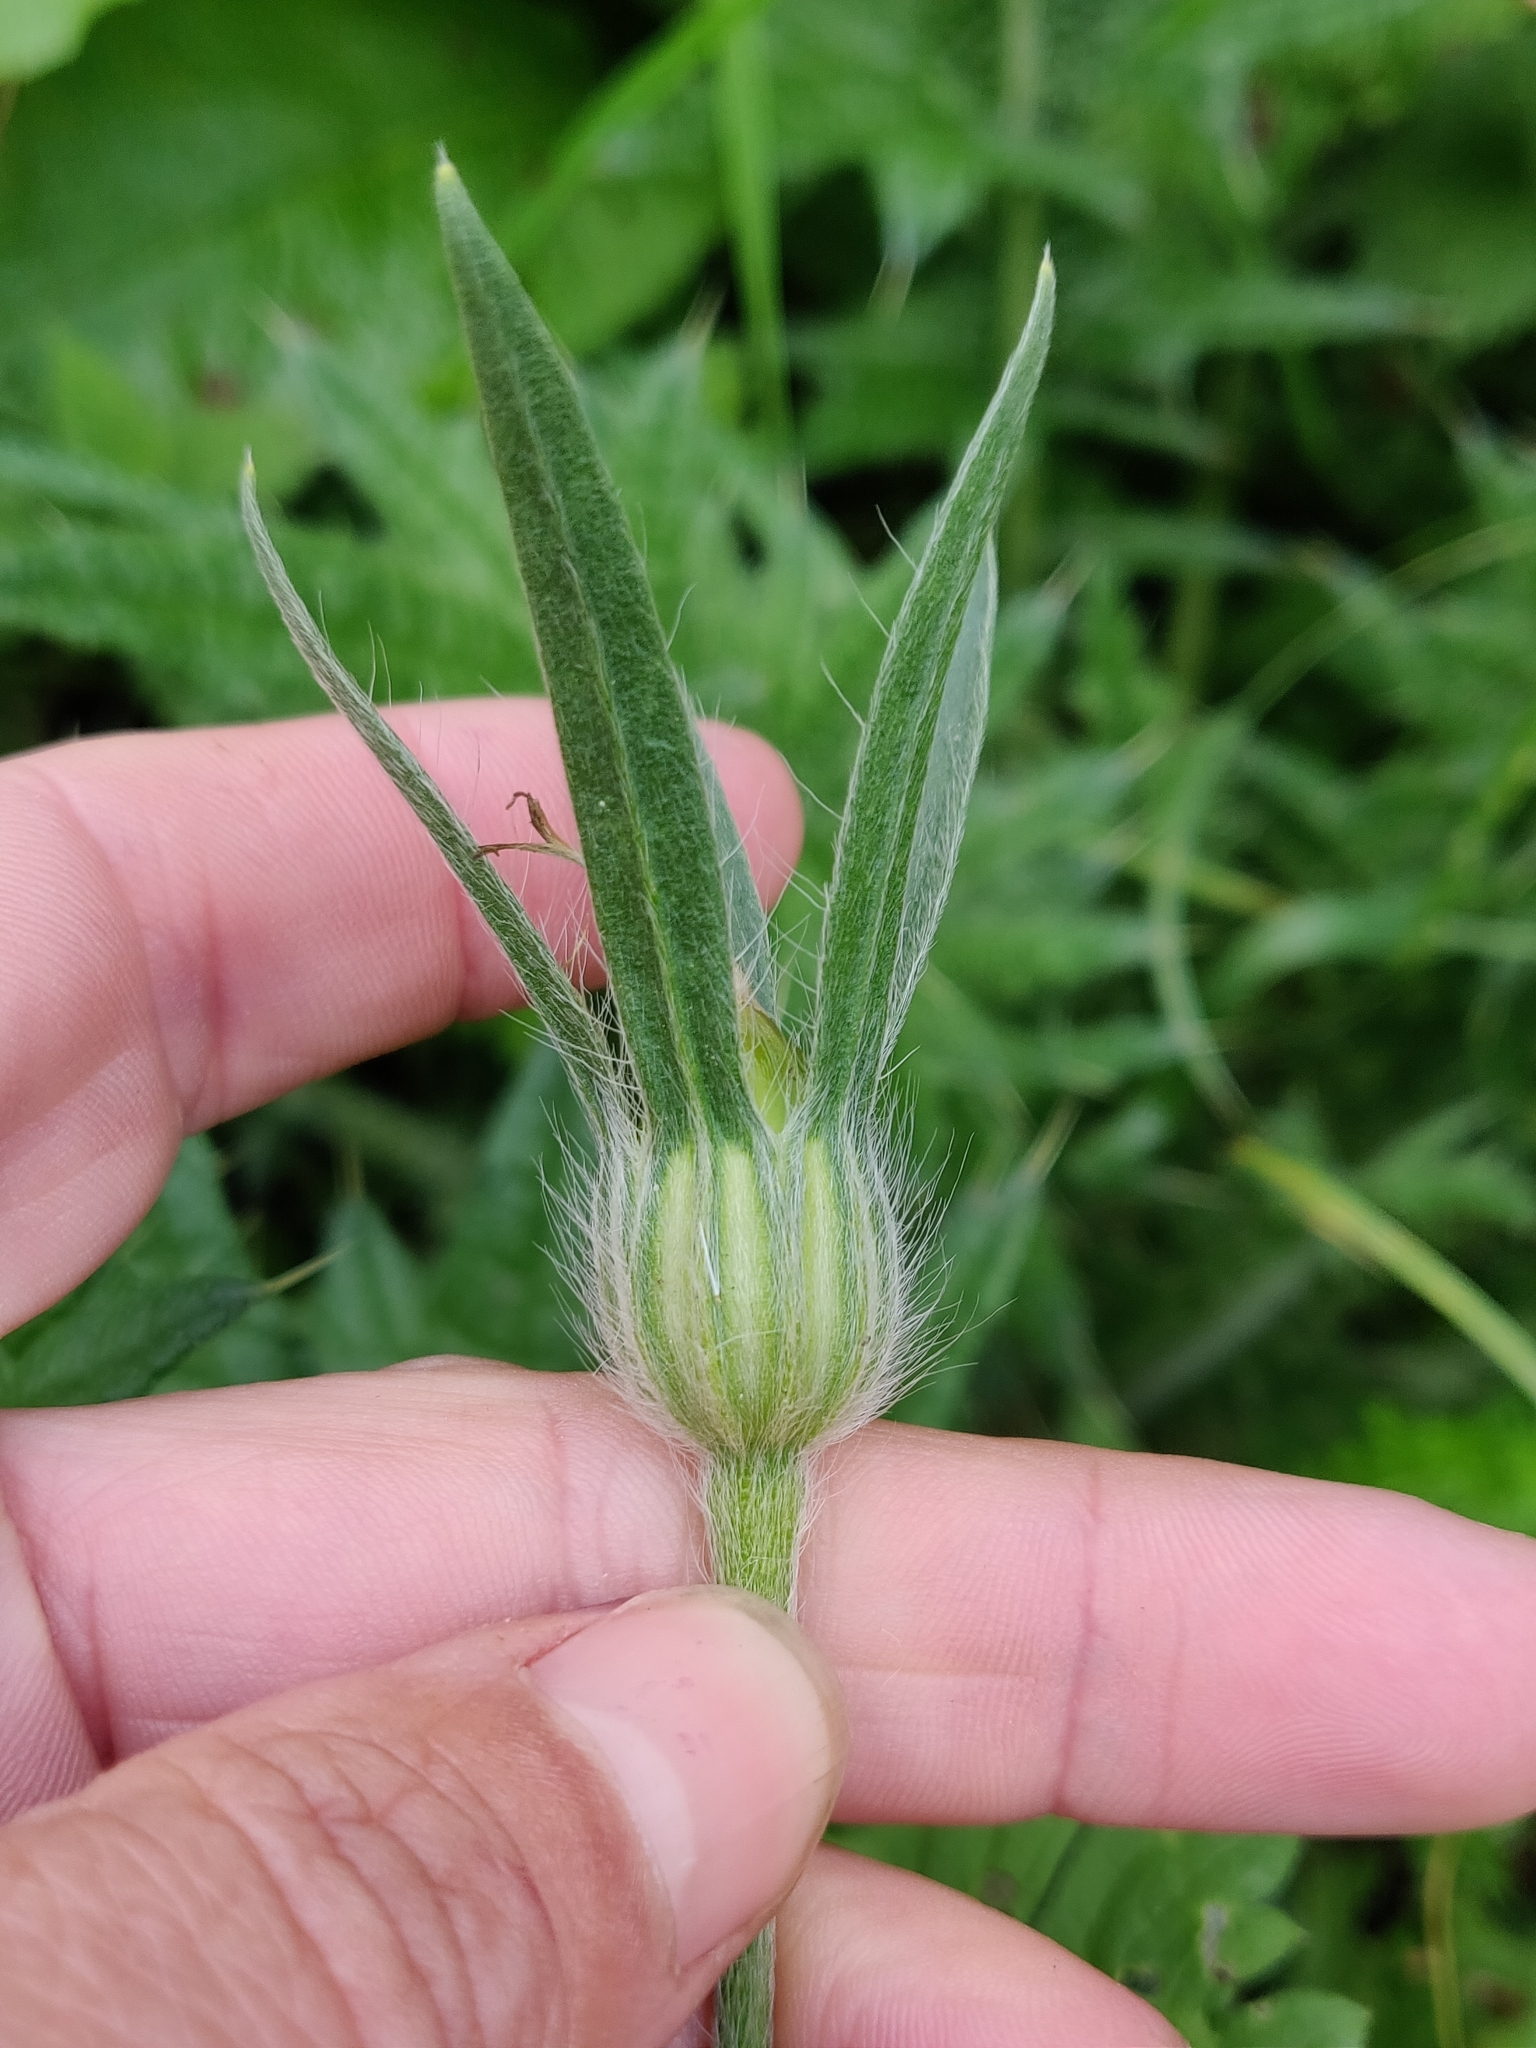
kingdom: Plantae
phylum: Tracheophyta
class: Magnoliopsida
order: Caryophyllales
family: Caryophyllaceae
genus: Agrostemma
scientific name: Agrostemma githago
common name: Common corncockle
